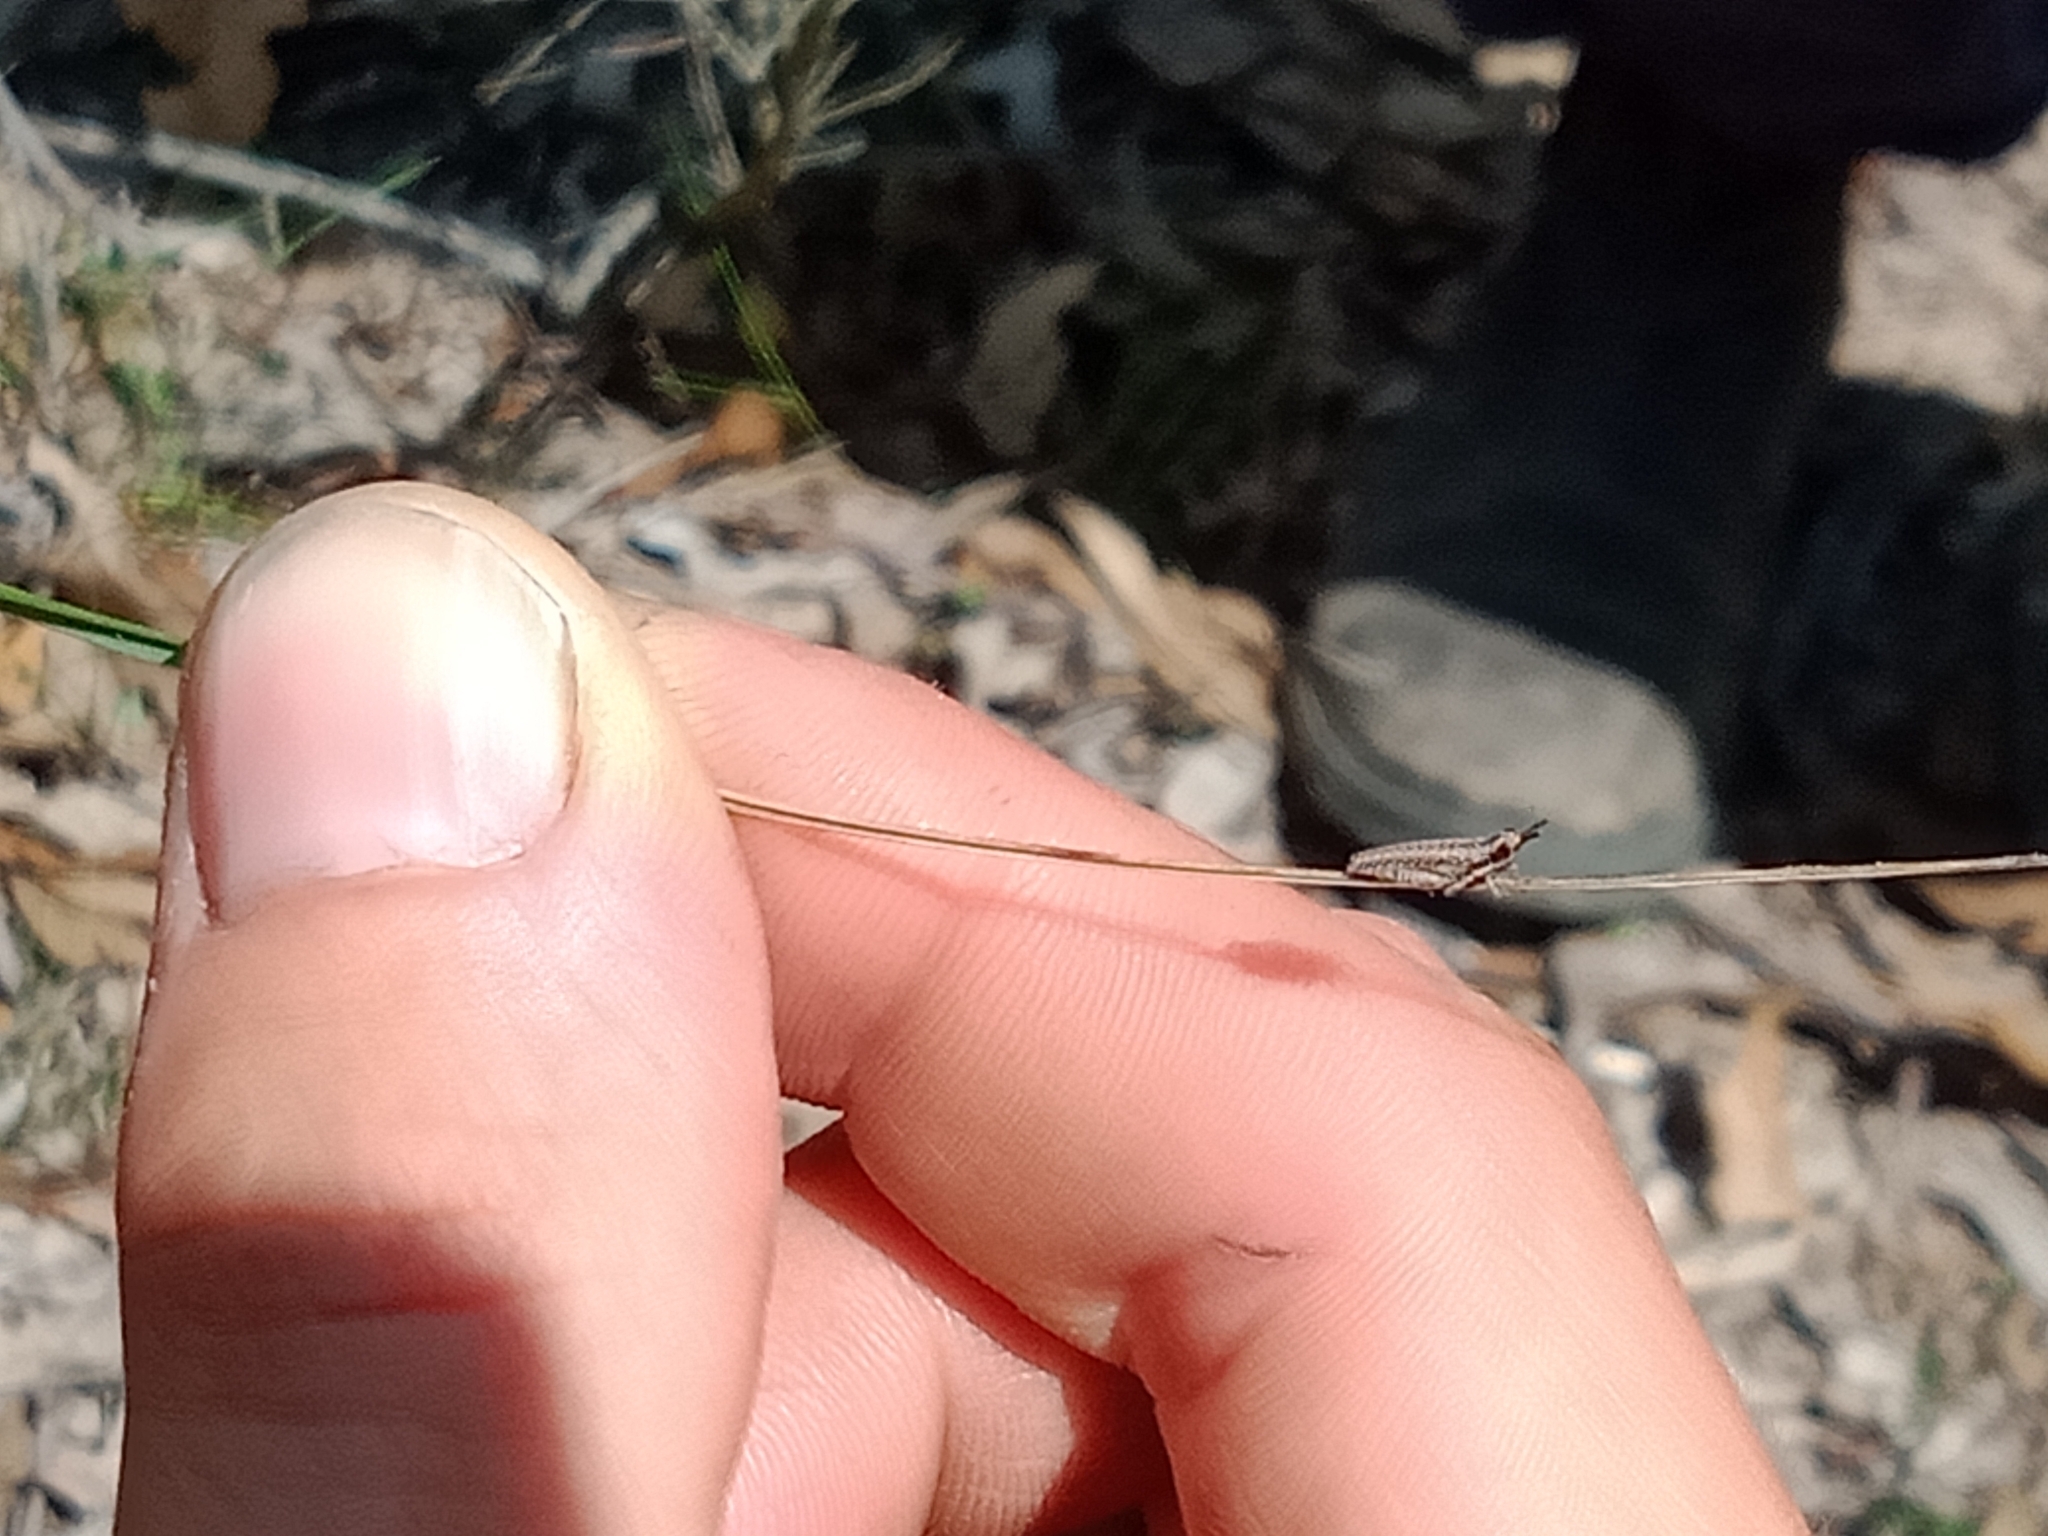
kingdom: Animalia
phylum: Arthropoda
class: Insecta
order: Orthoptera
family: Pyrgomorphidae
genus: Monistria
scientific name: Monistria discrepans
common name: Common pyrgomorph
